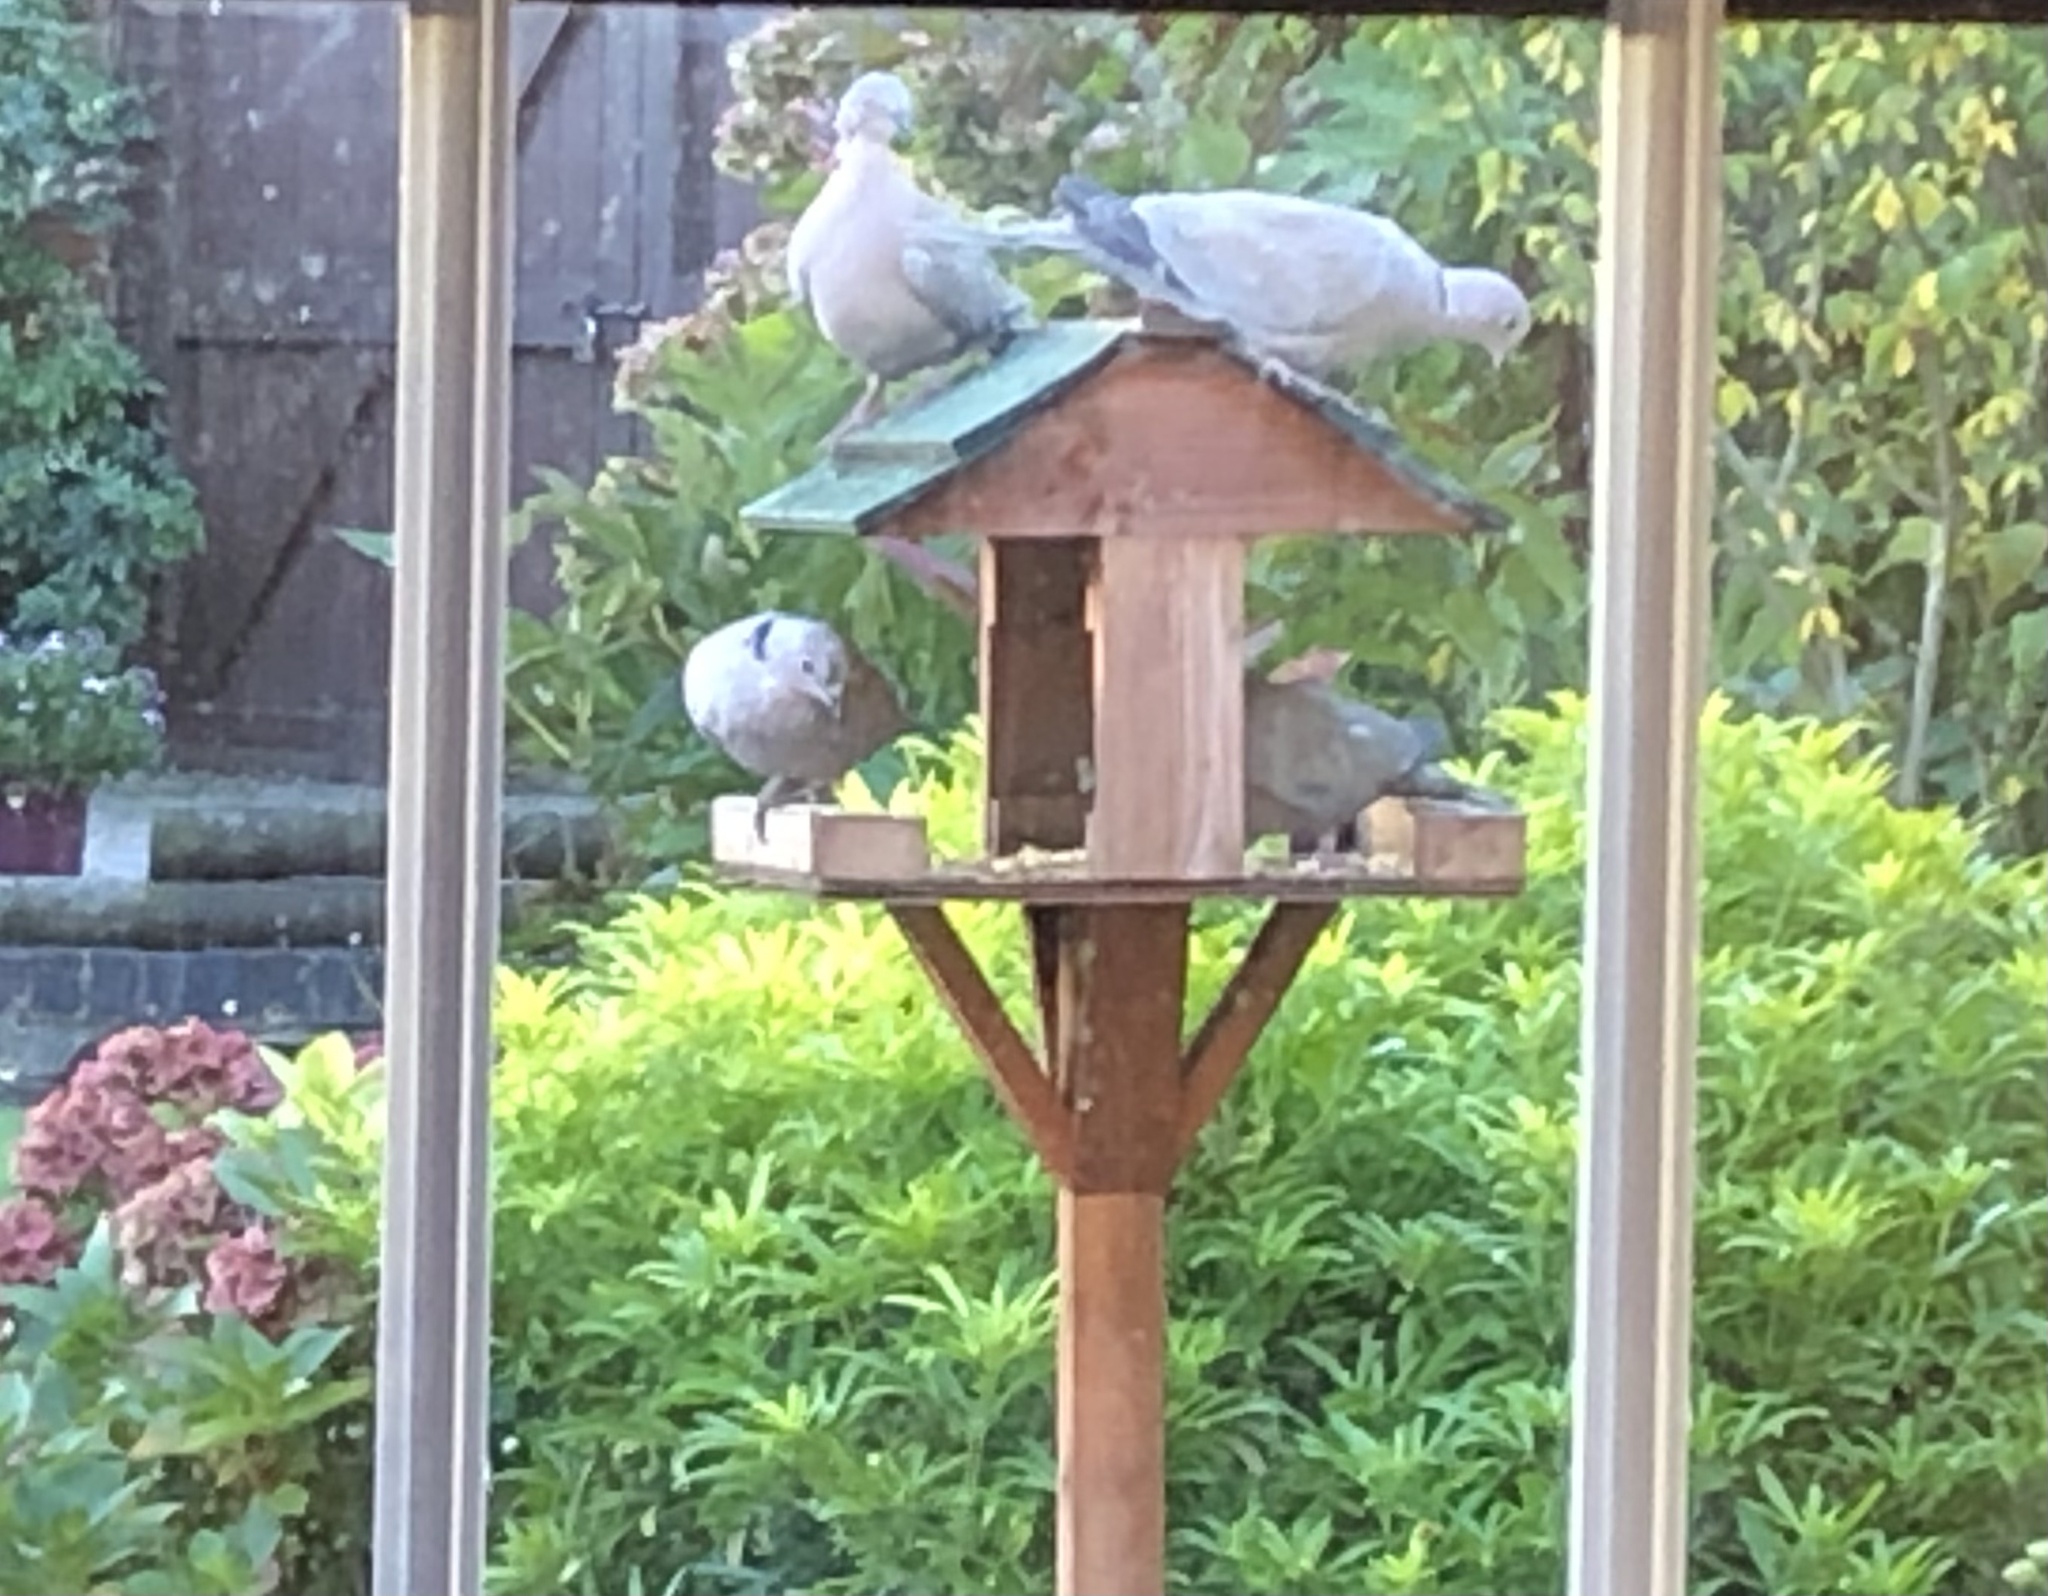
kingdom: Animalia
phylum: Chordata
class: Aves
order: Columbiformes
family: Columbidae
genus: Streptopelia
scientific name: Streptopelia decaocto
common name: Eurasian collared dove
